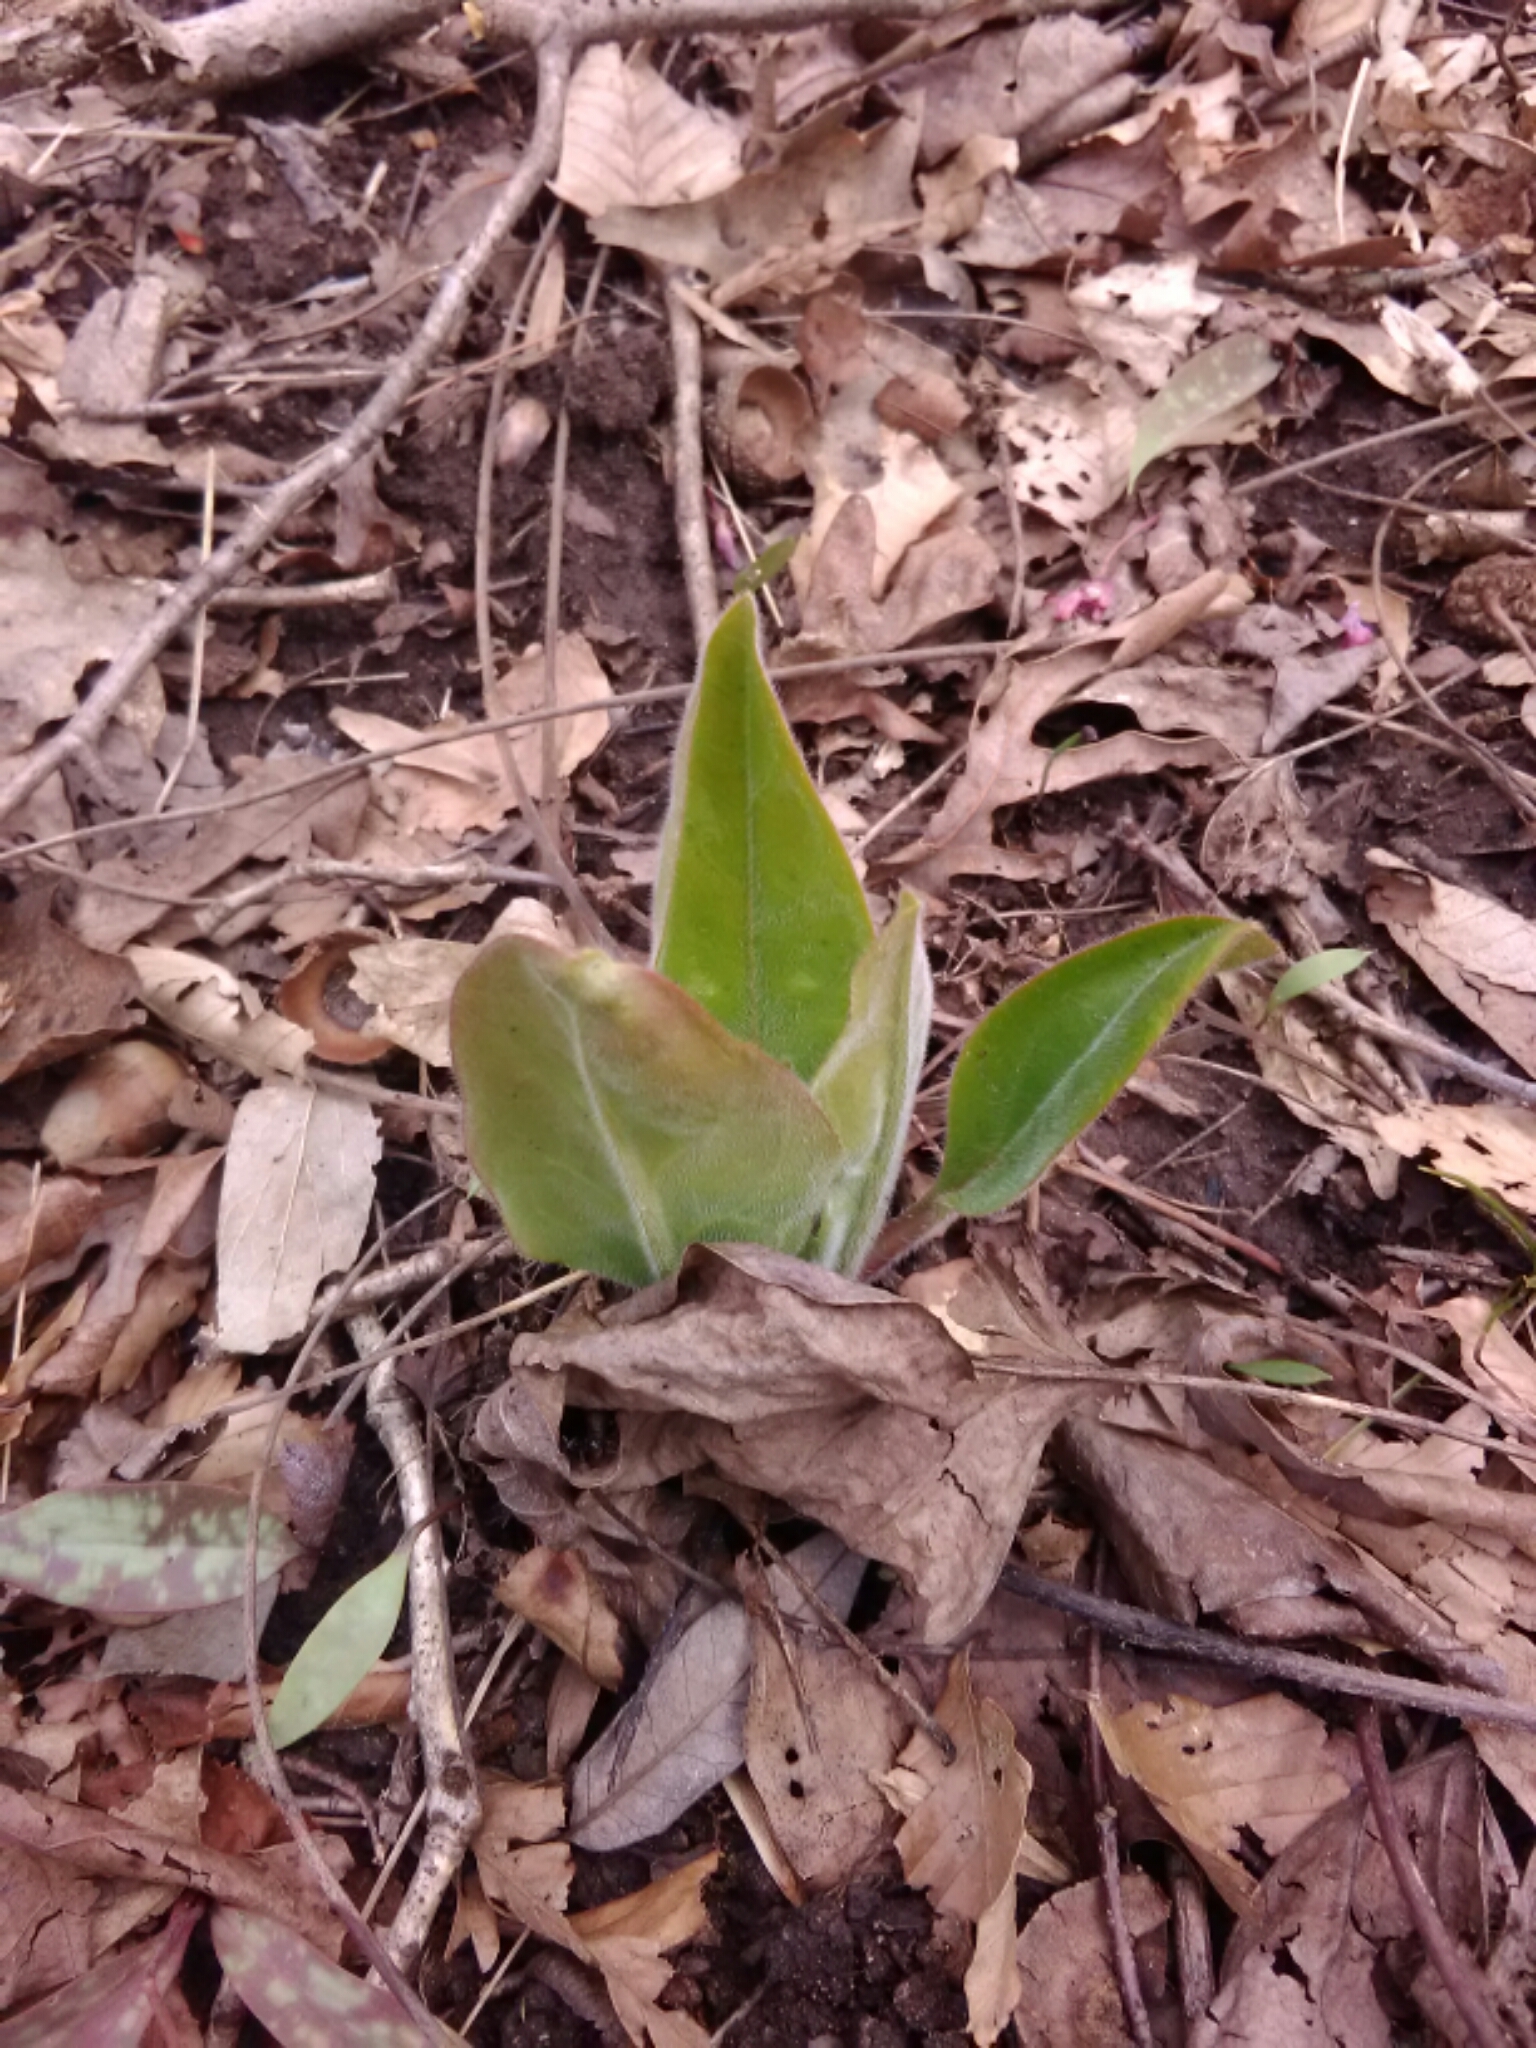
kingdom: Plantae
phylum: Tracheophyta
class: Magnoliopsida
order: Boraginales
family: Boraginaceae
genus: Andersonglossum
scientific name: Andersonglossum virginianum
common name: Wild comfrey
